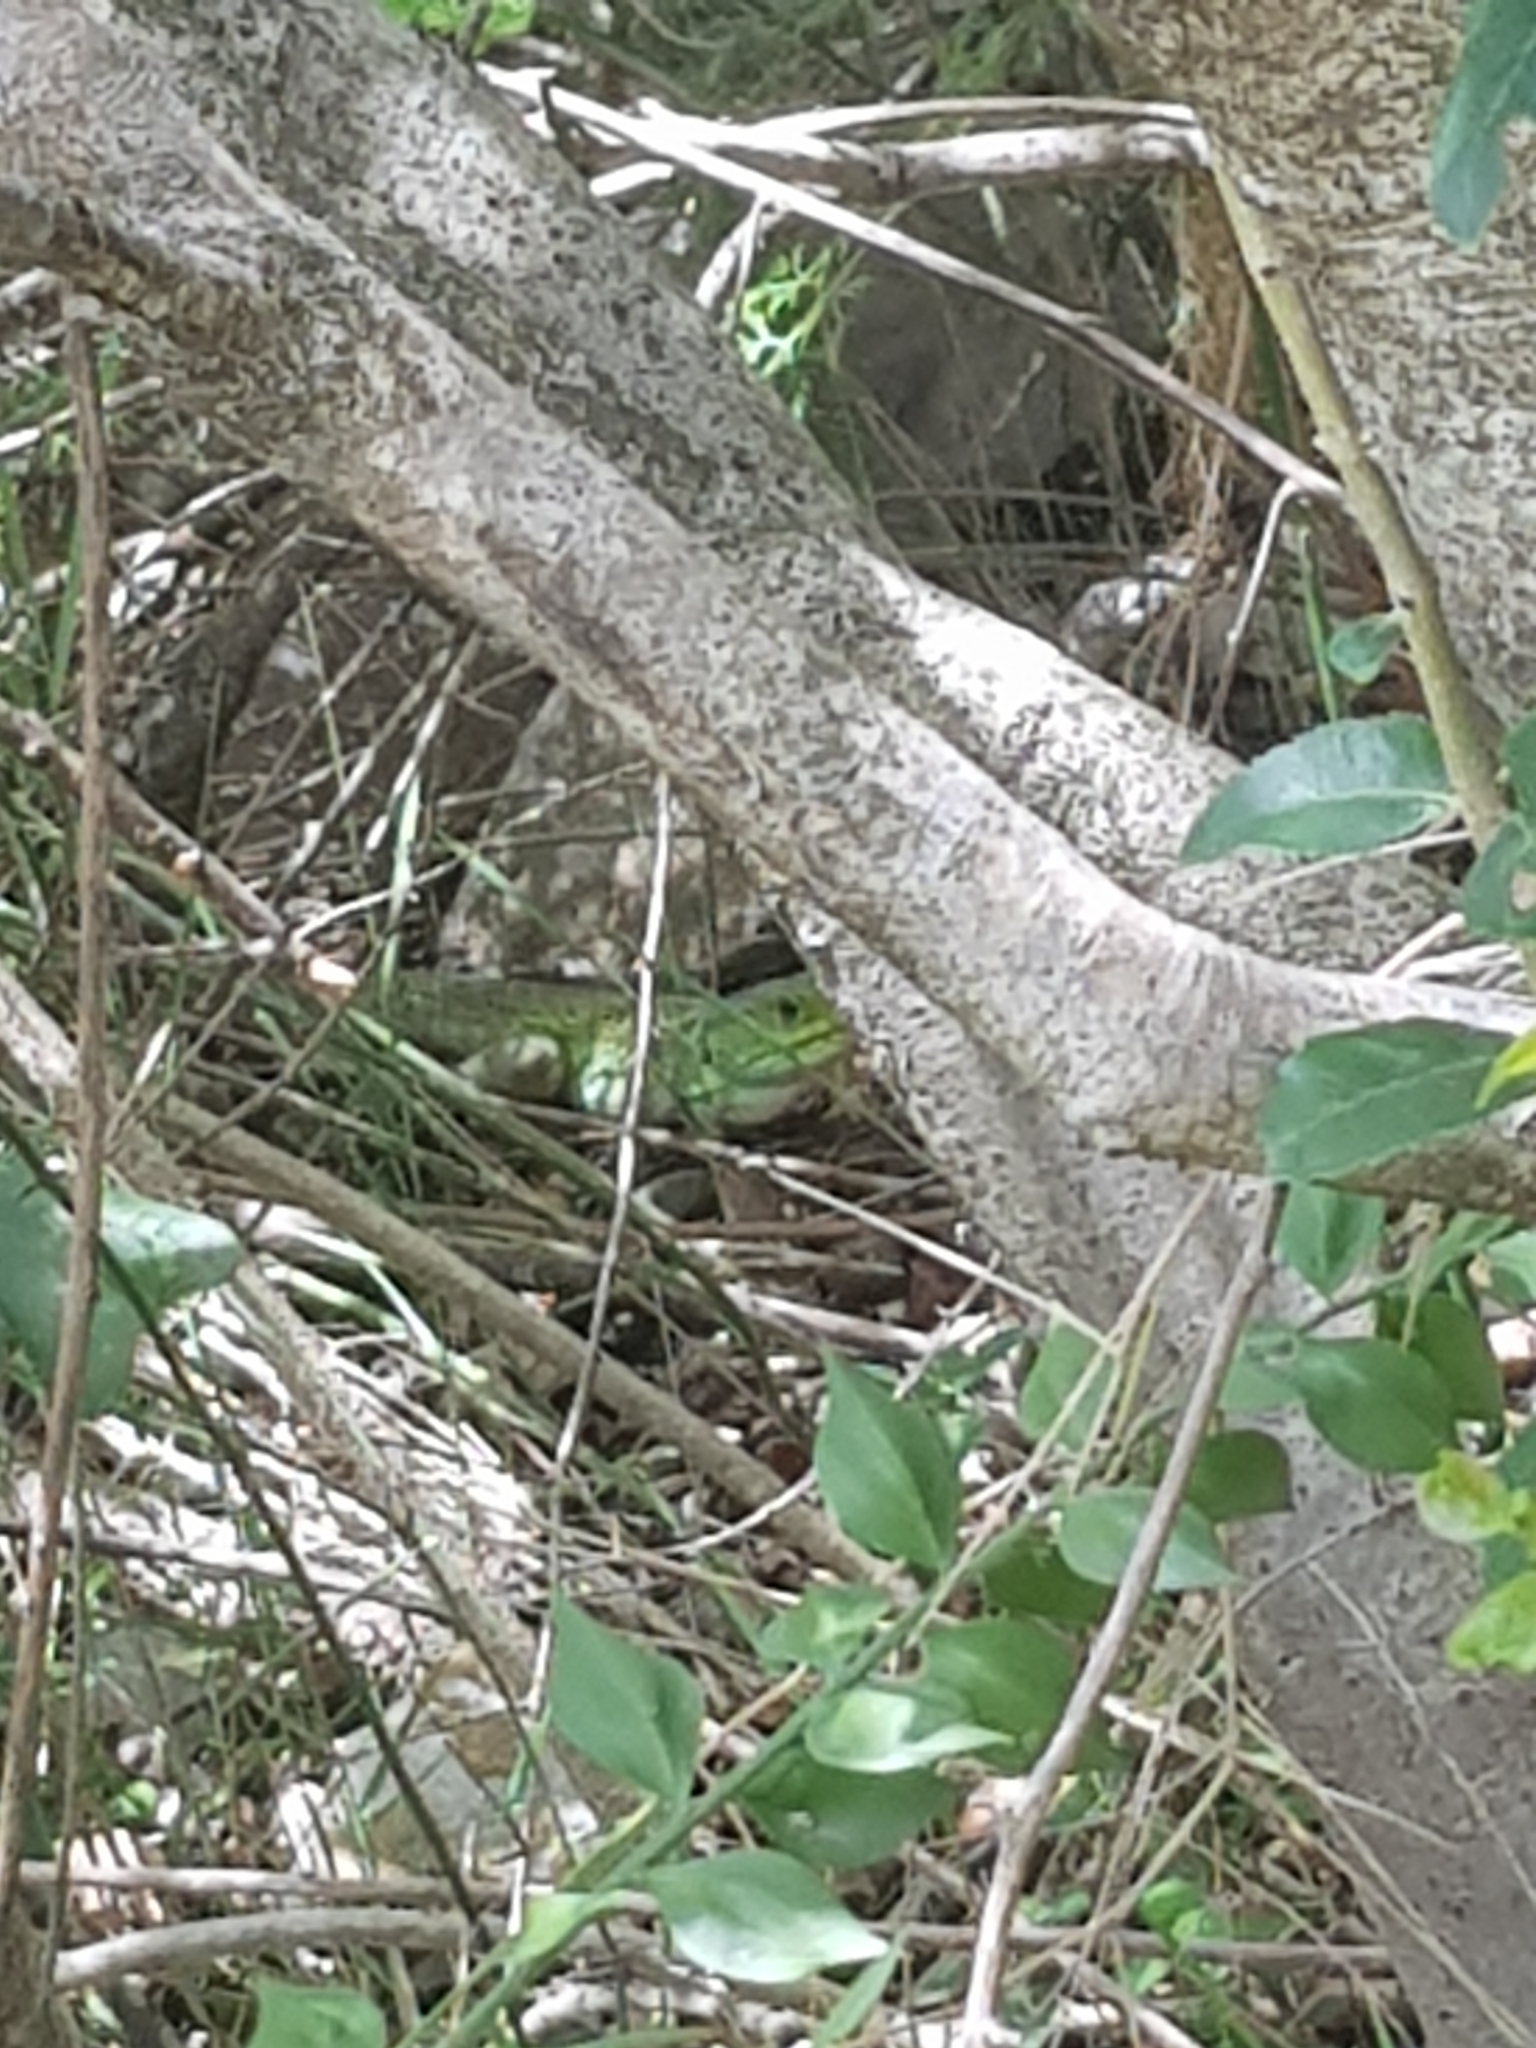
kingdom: Animalia
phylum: Chordata
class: Squamata
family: Lacertidae
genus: Lacerta
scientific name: Lacerta bilineata
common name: Western green lizard
